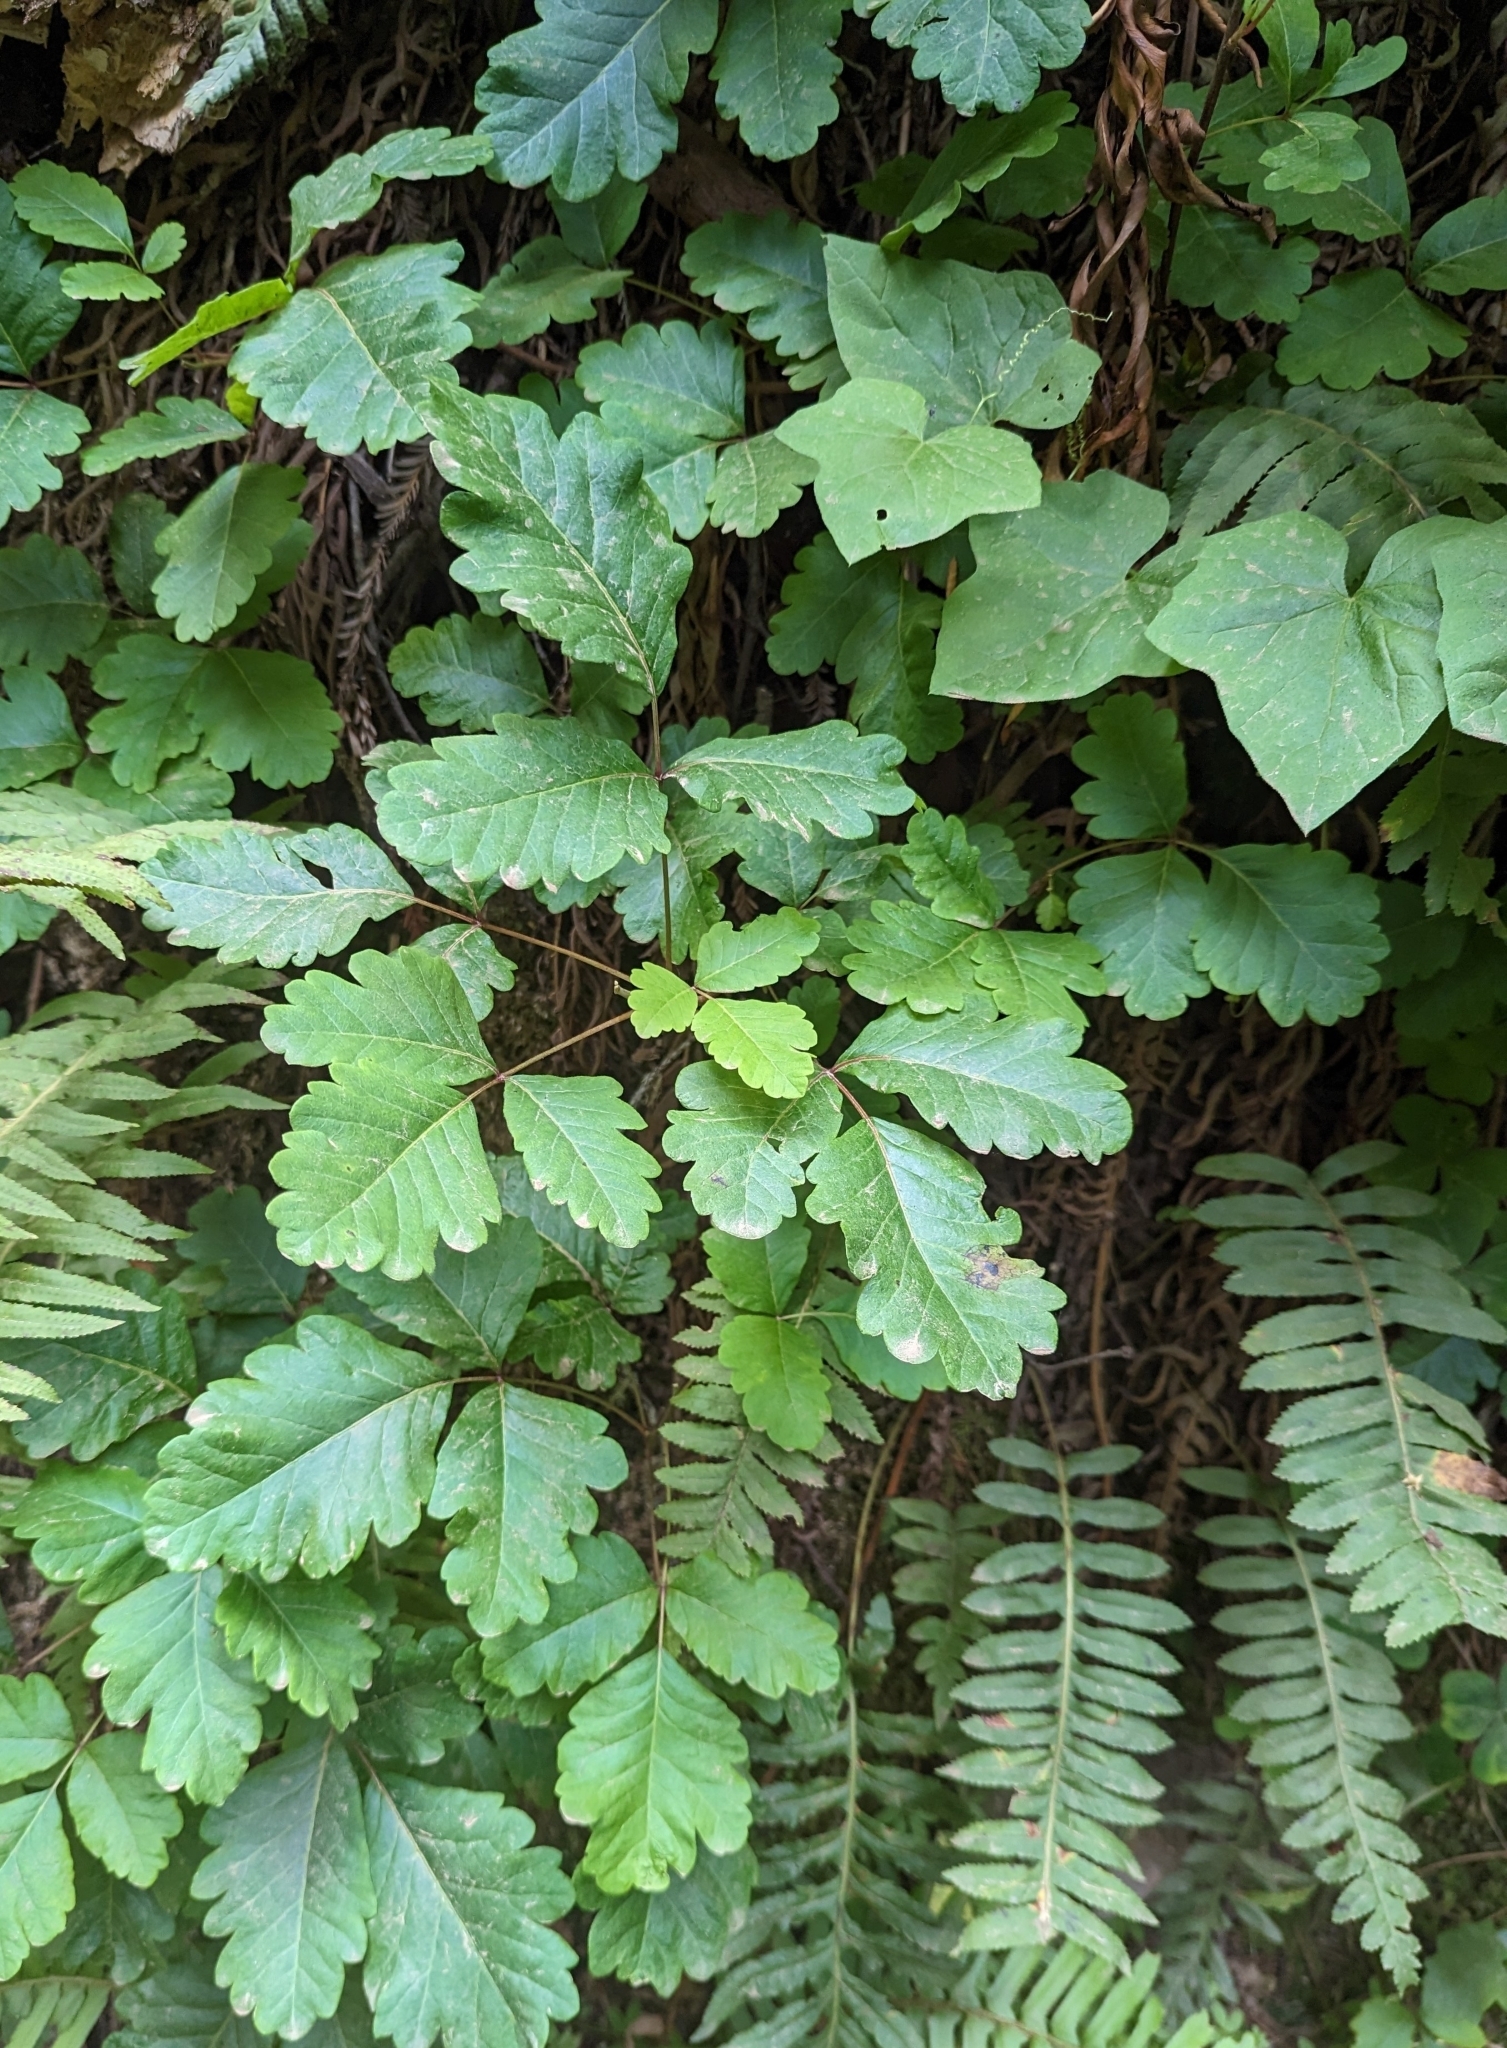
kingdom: Plantae
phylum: Tracheophyta
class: Magnoliopsida
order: Sapindales
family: Anacardiaceae
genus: Toxicodendron
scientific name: Toxicodendron diversilobum
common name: Pacific poison-oak
